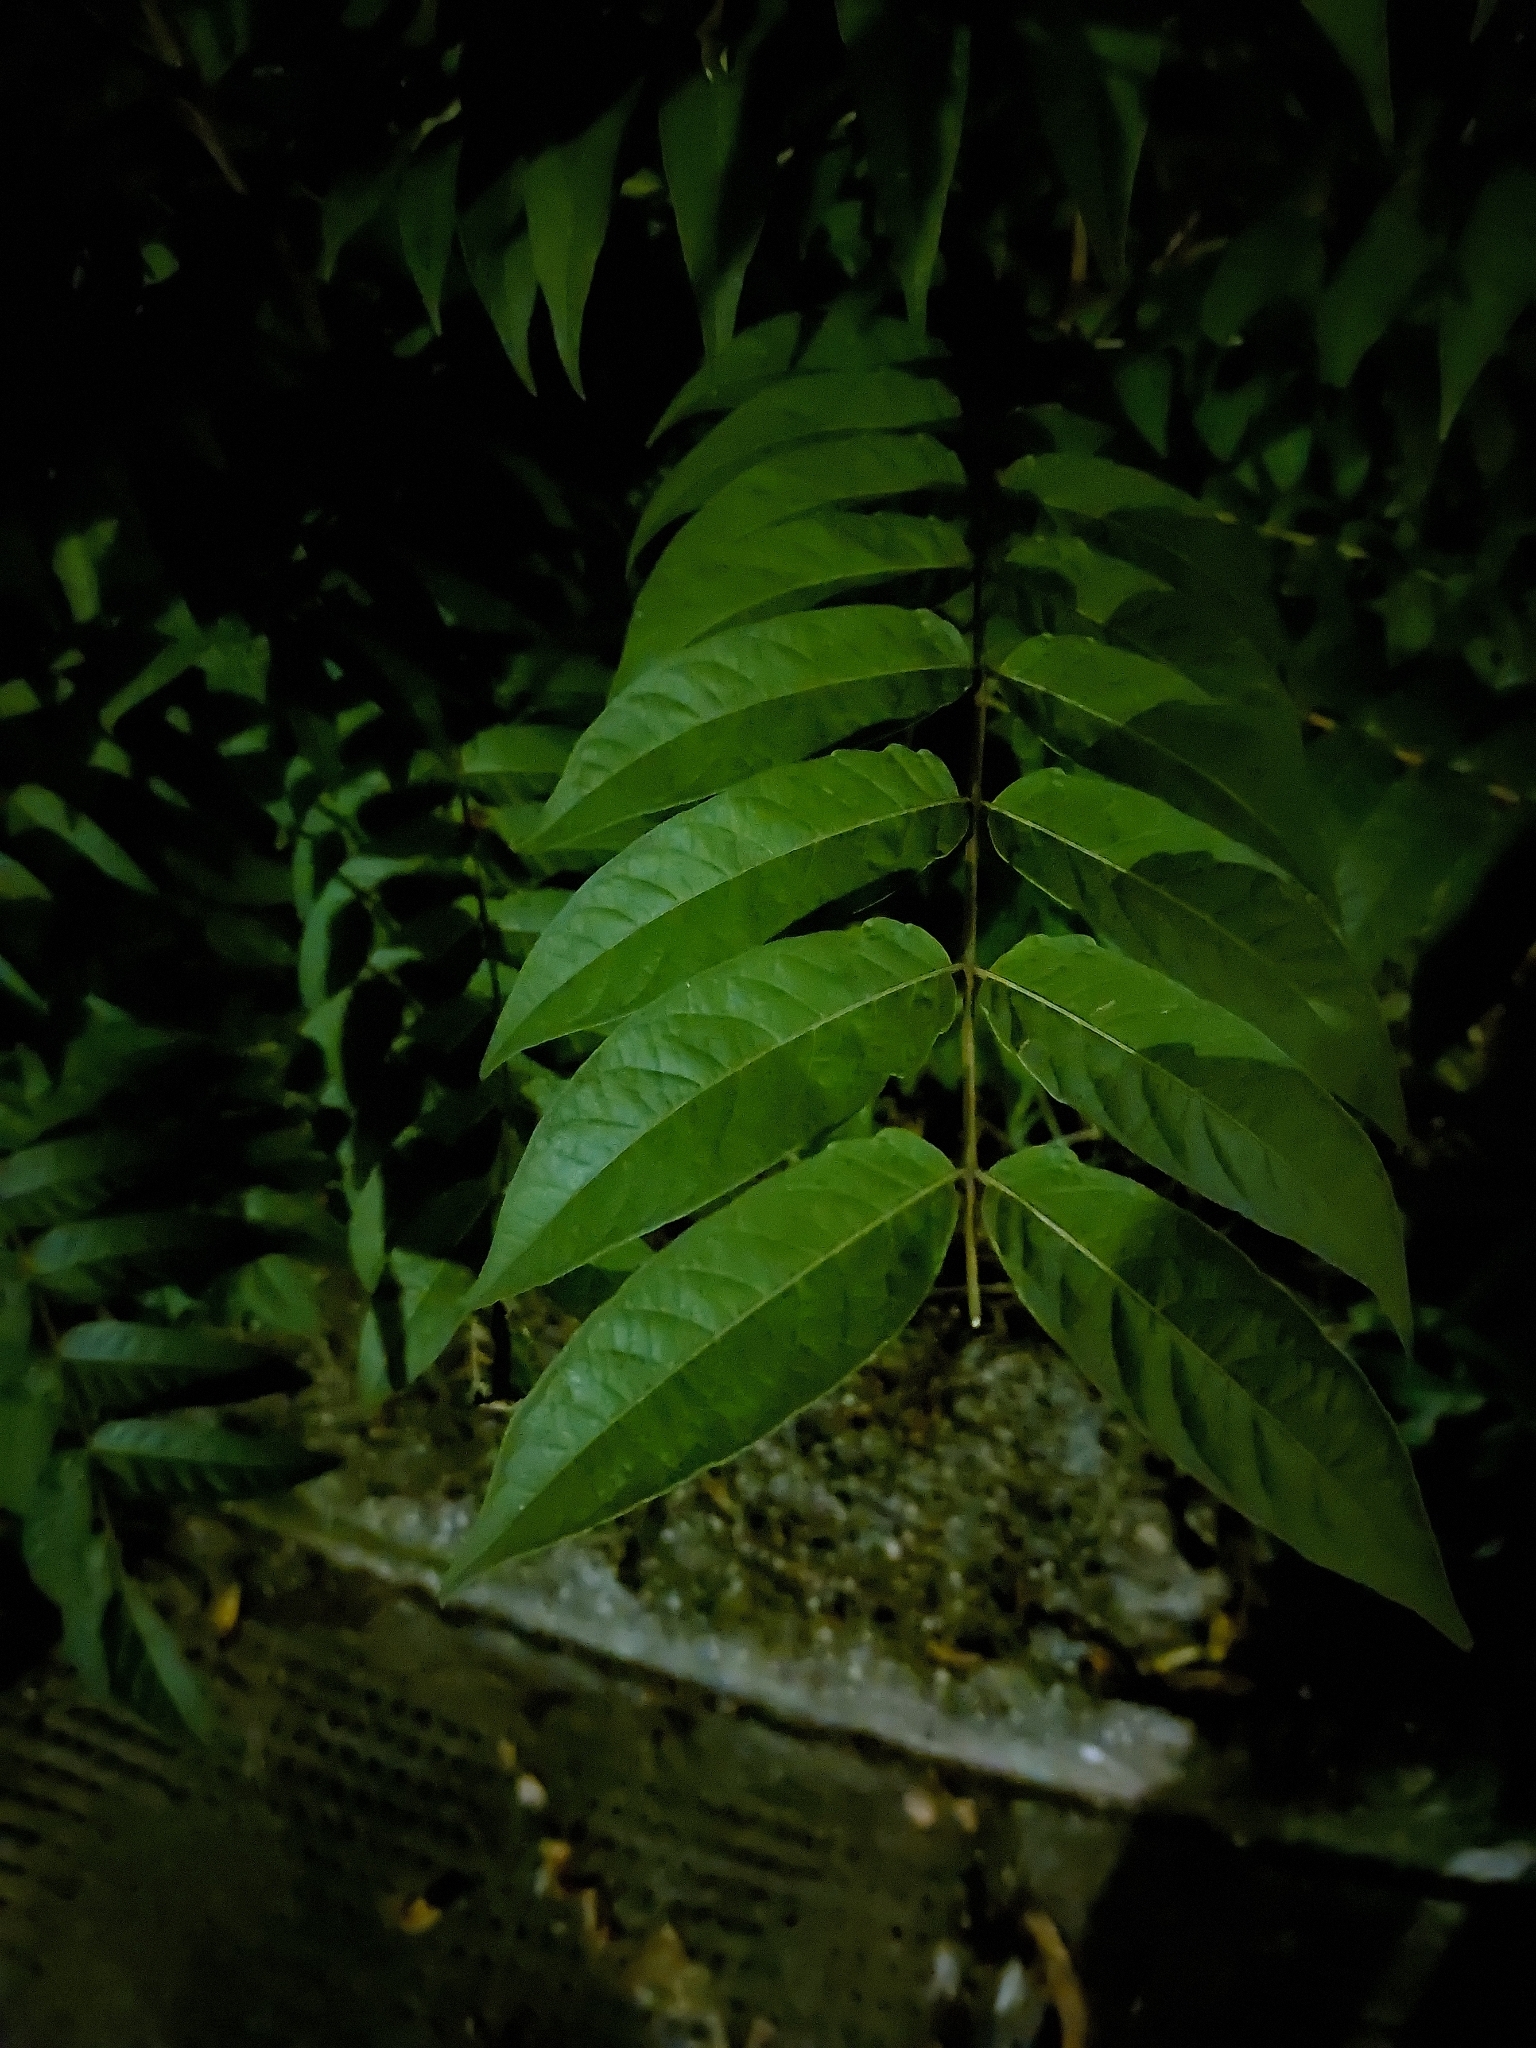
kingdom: Plantae
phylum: Tracheophyta
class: Magnoliopsida
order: Sapindales
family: Simaroubaceae
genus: Ailanthus
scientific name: Ailanthus altissima
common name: Tree-of-heaven
